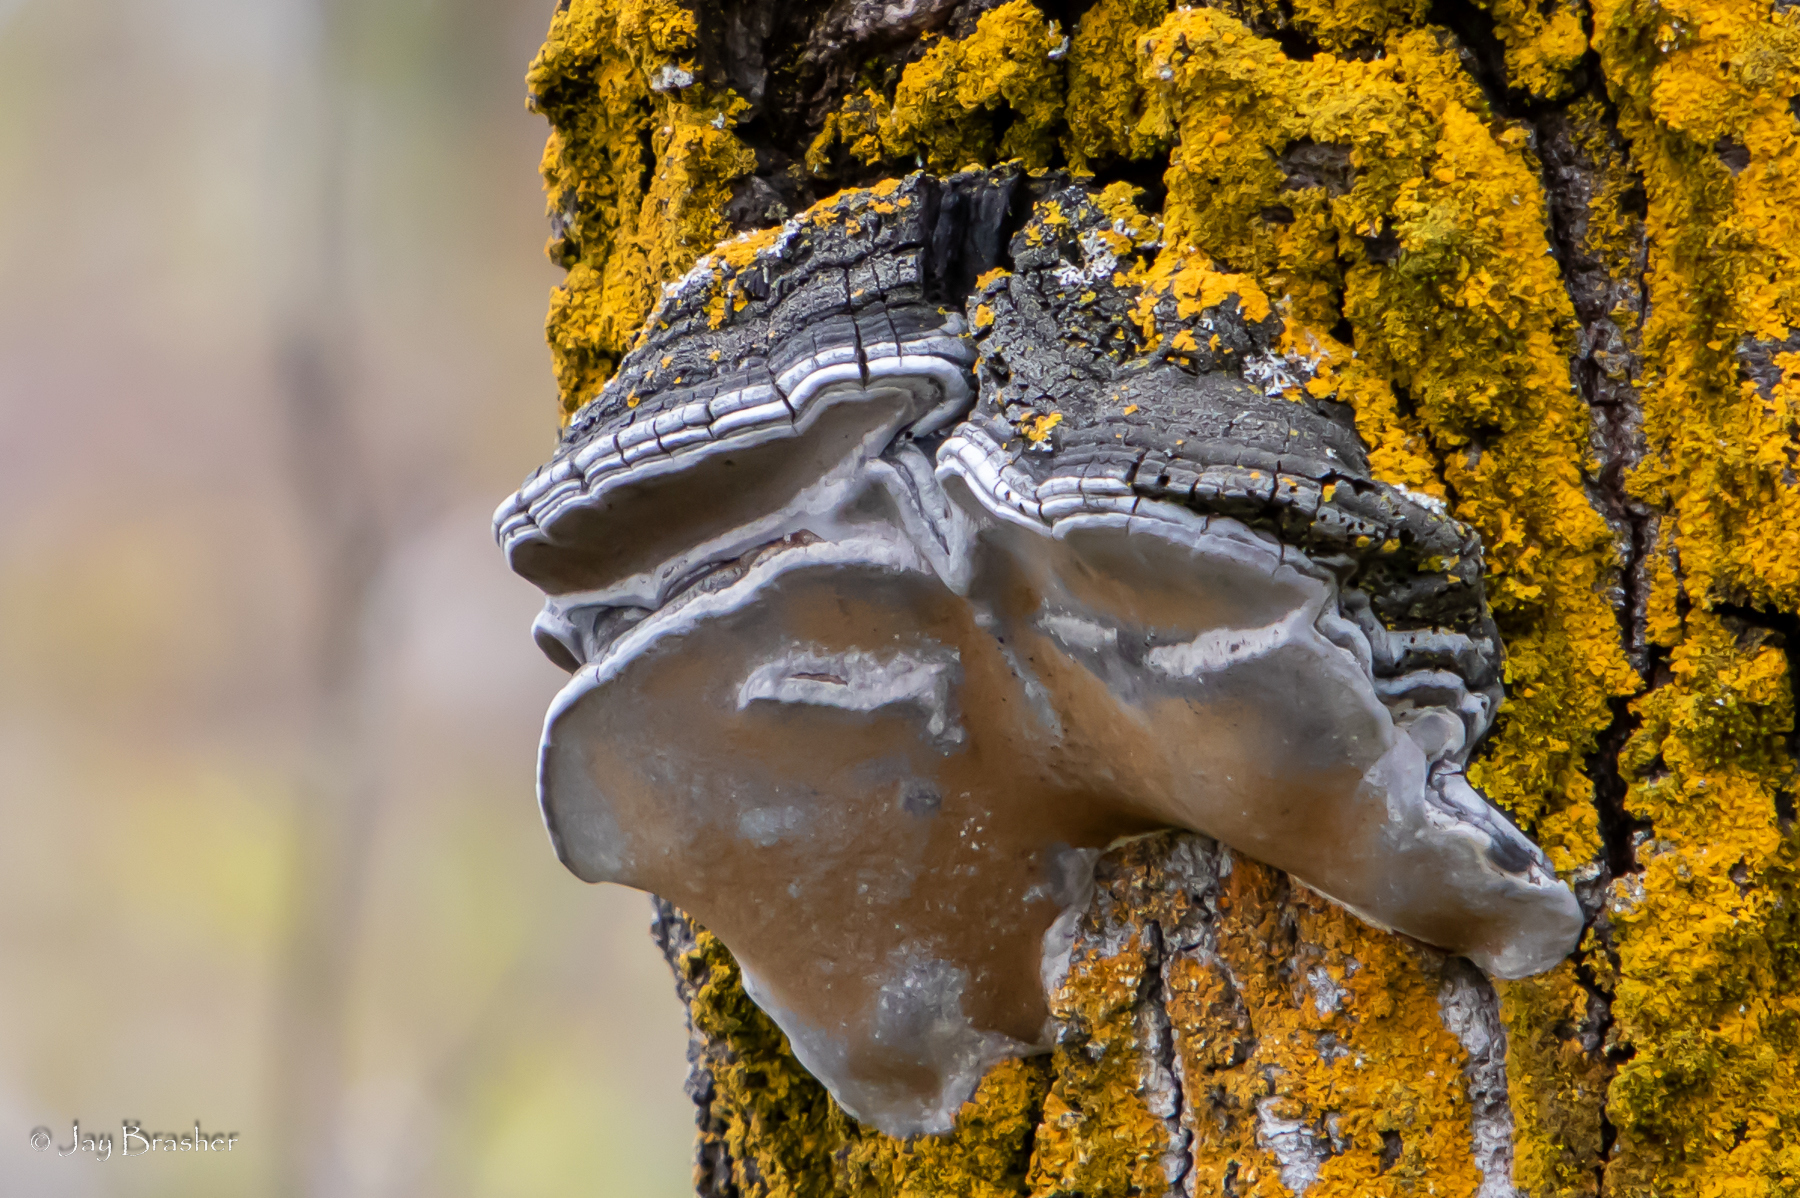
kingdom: Fungi
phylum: Basidiomycota
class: Agaricomycetes
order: Hymenochaetales
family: Hymenochaetaceae
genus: Phellinus
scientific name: Phellinus tremulae
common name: Aspen bracket
